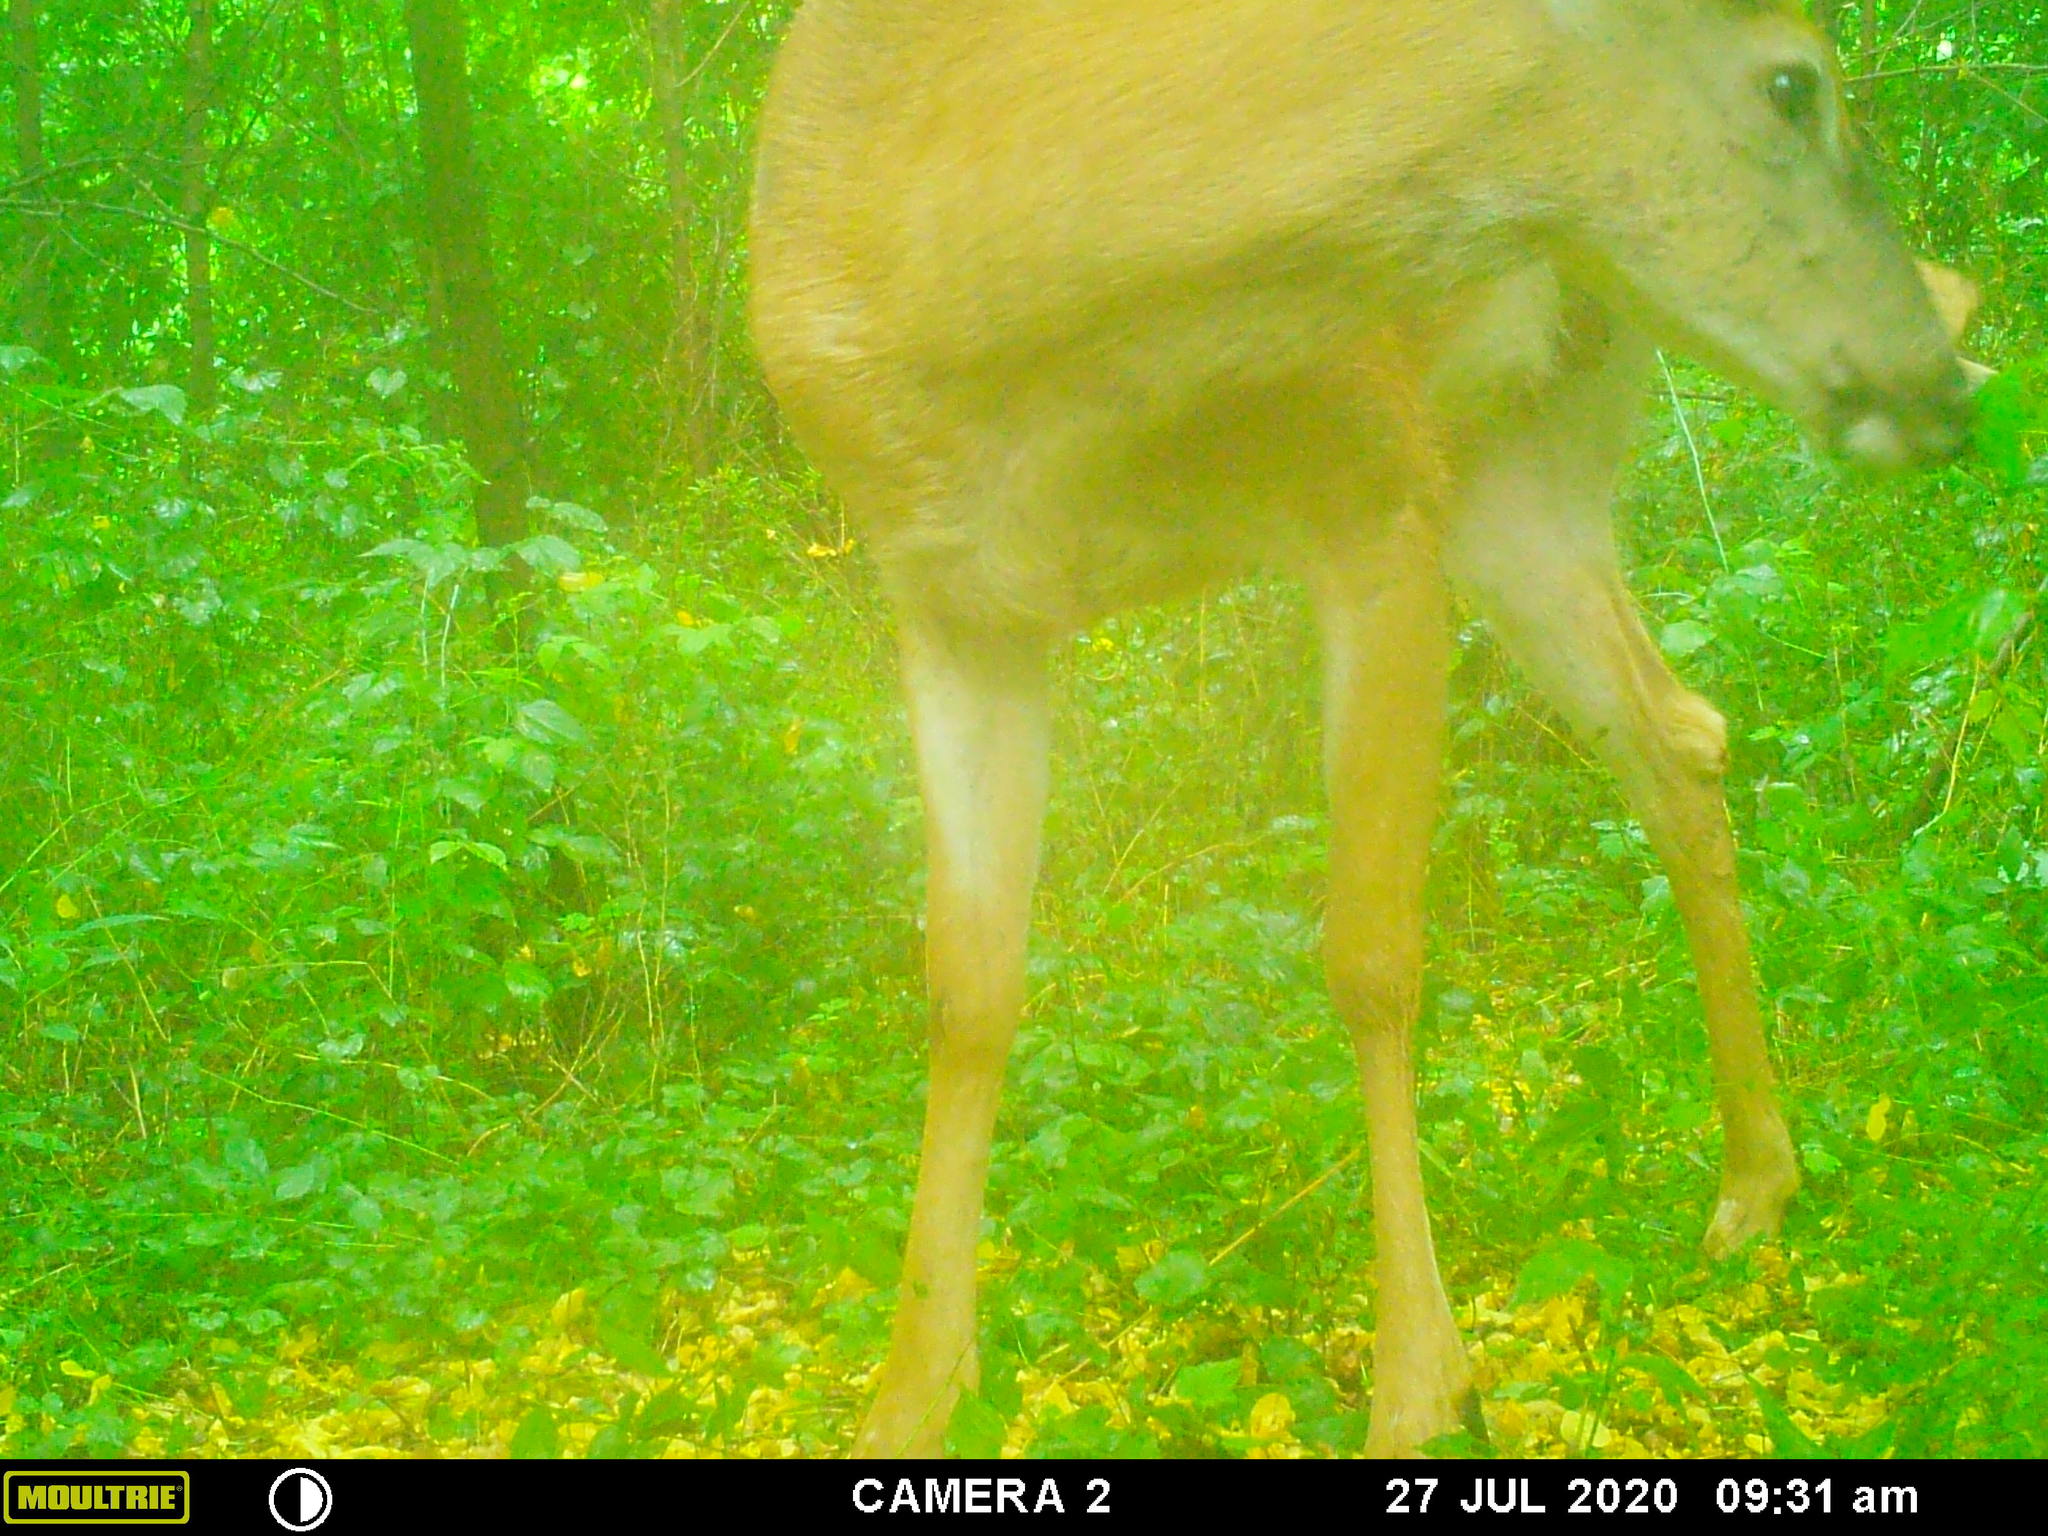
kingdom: Animalia
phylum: Chordata
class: Mammalia
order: Artiodactyla
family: Cervidae
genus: Odocoileus
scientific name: Odocoileus virginianus
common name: White-tailed deer
